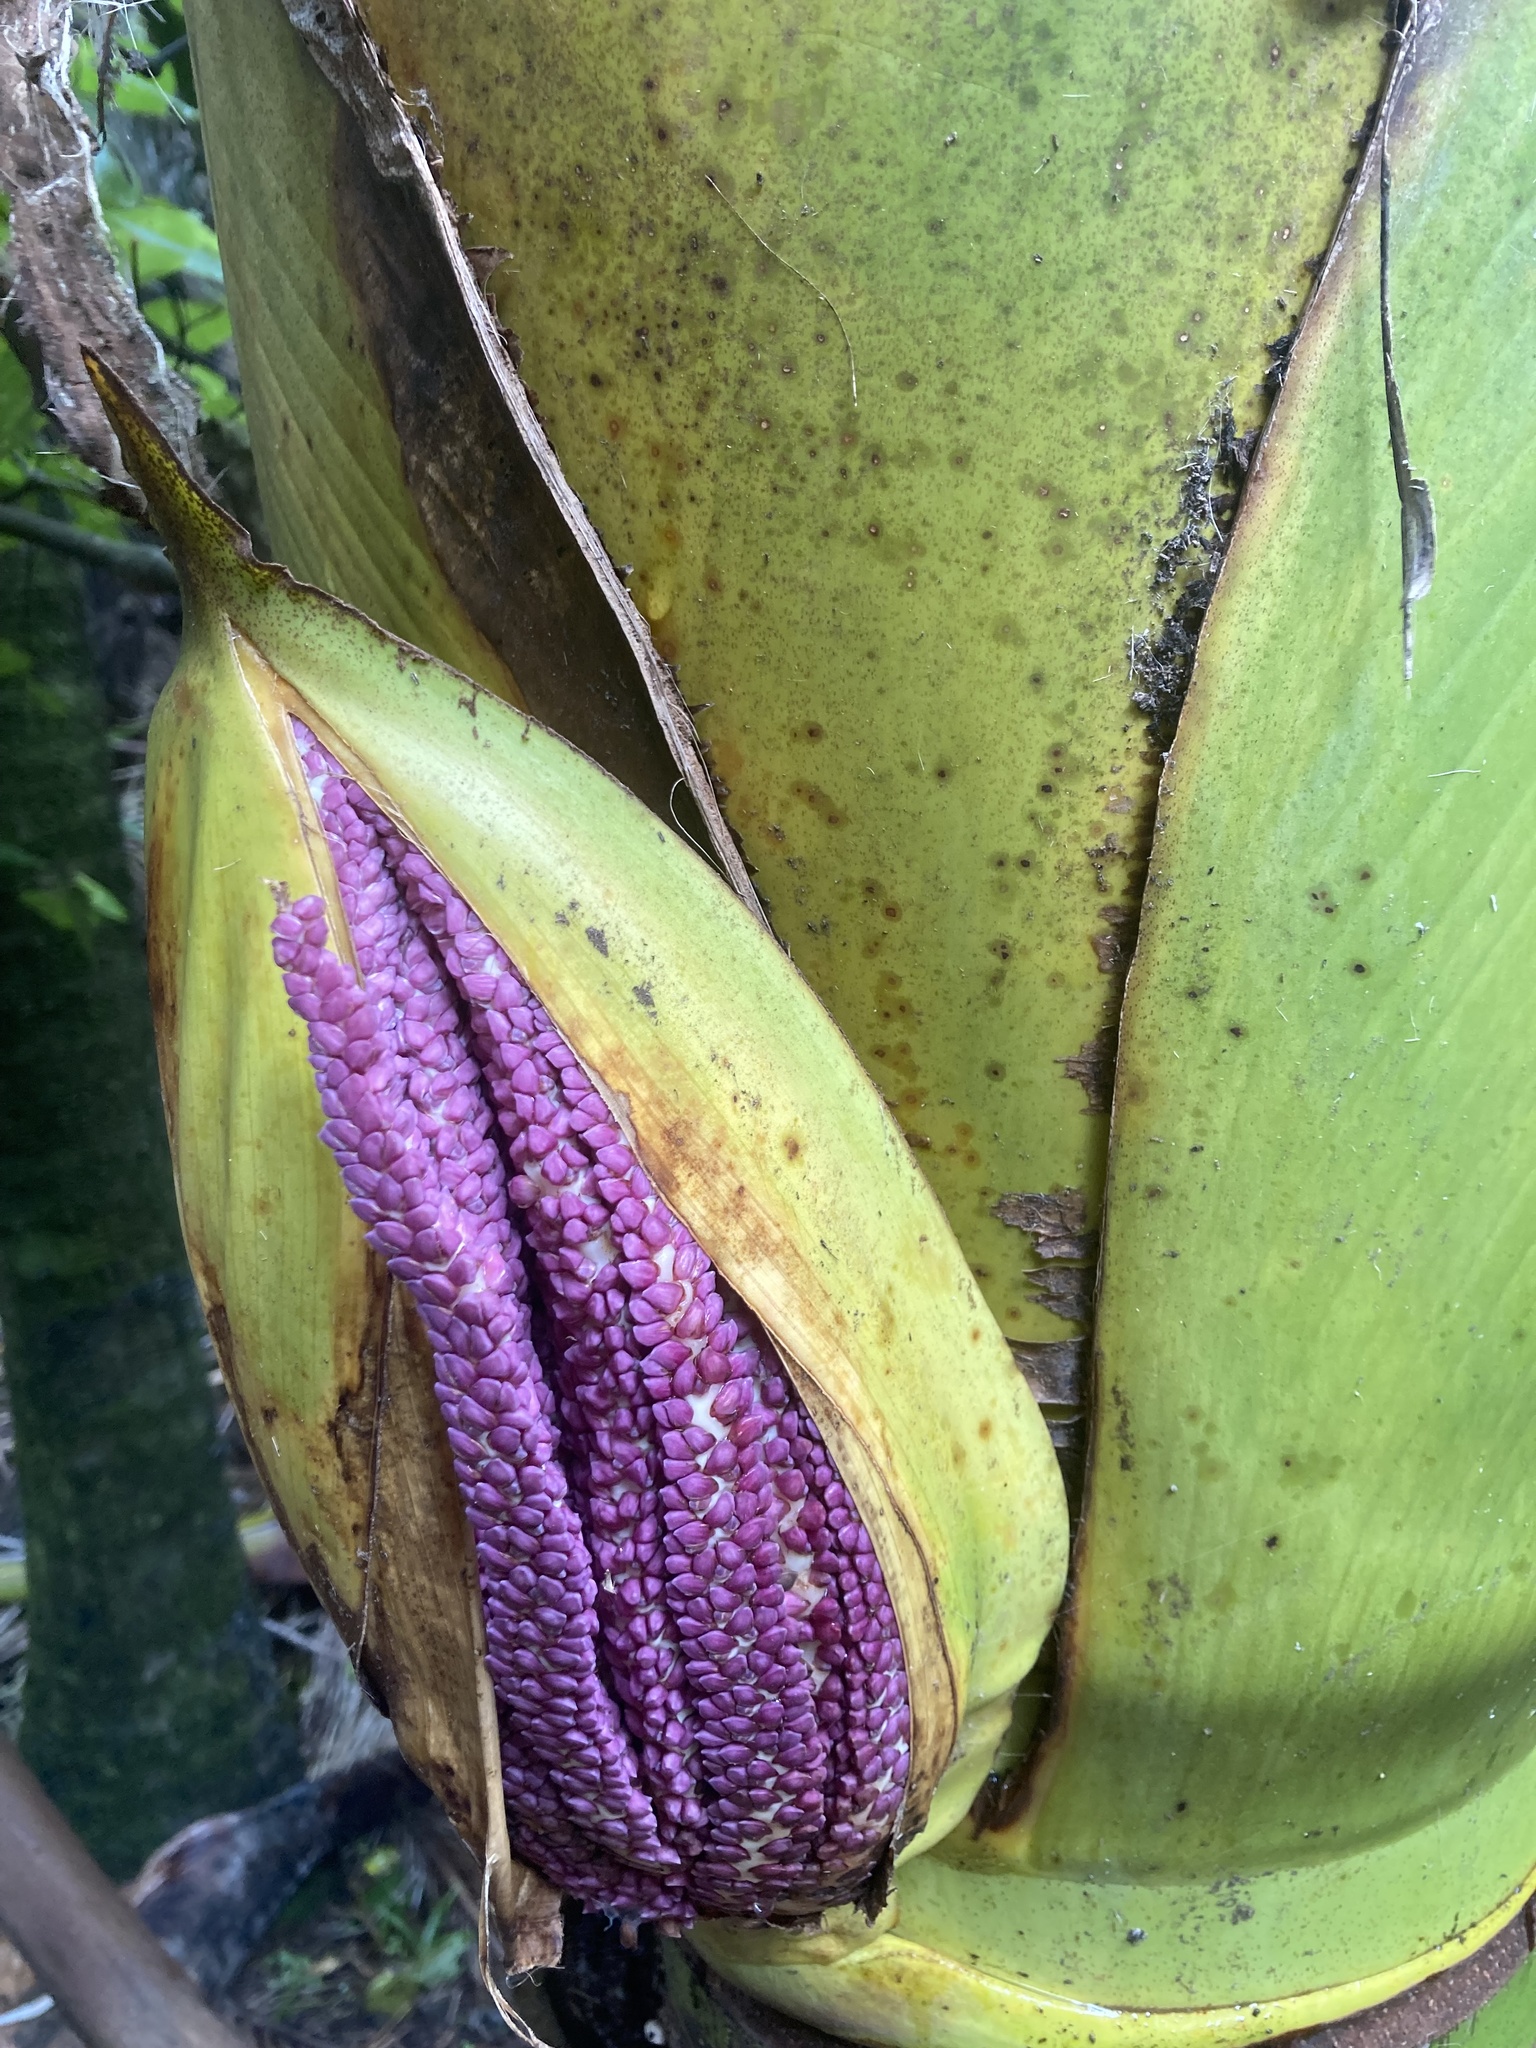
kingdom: Plantae
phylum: Tracheophyta
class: Liliopsida
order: Arecales
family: Arecaceae
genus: Rhopalostylis
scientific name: Rhopalostylis sapida
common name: Feather-duster palm
